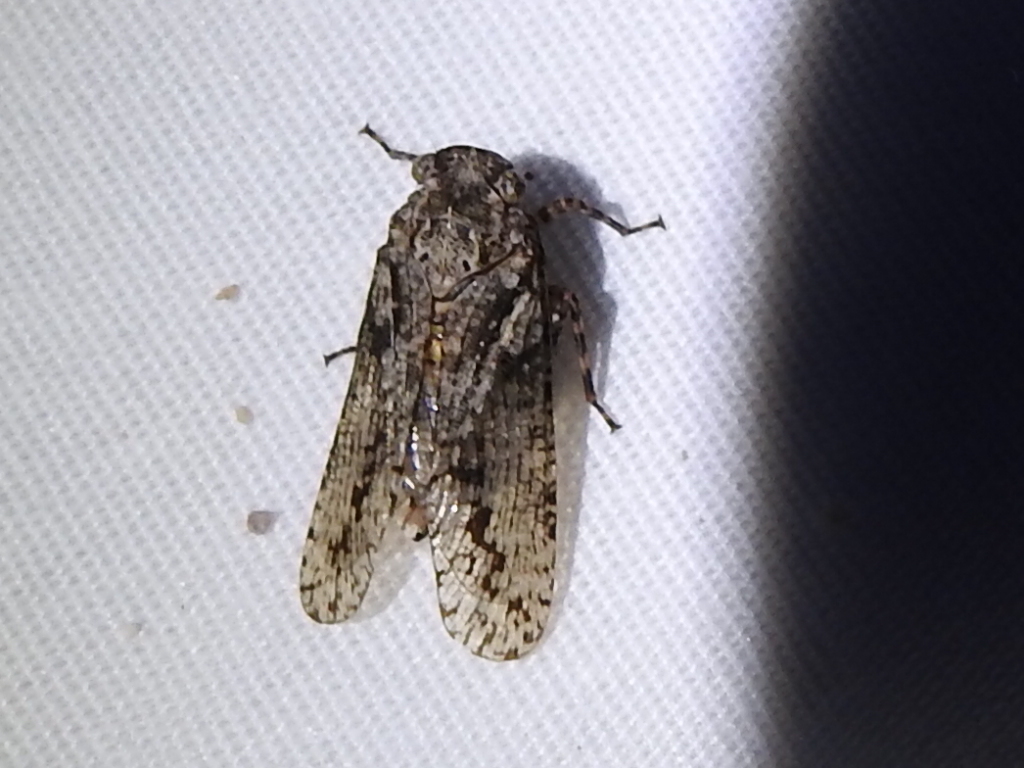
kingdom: Animalia
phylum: Arthropoda
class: Insecta
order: Hemiptera
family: Fulgoridae
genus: Alphina
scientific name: Alphina glauca
